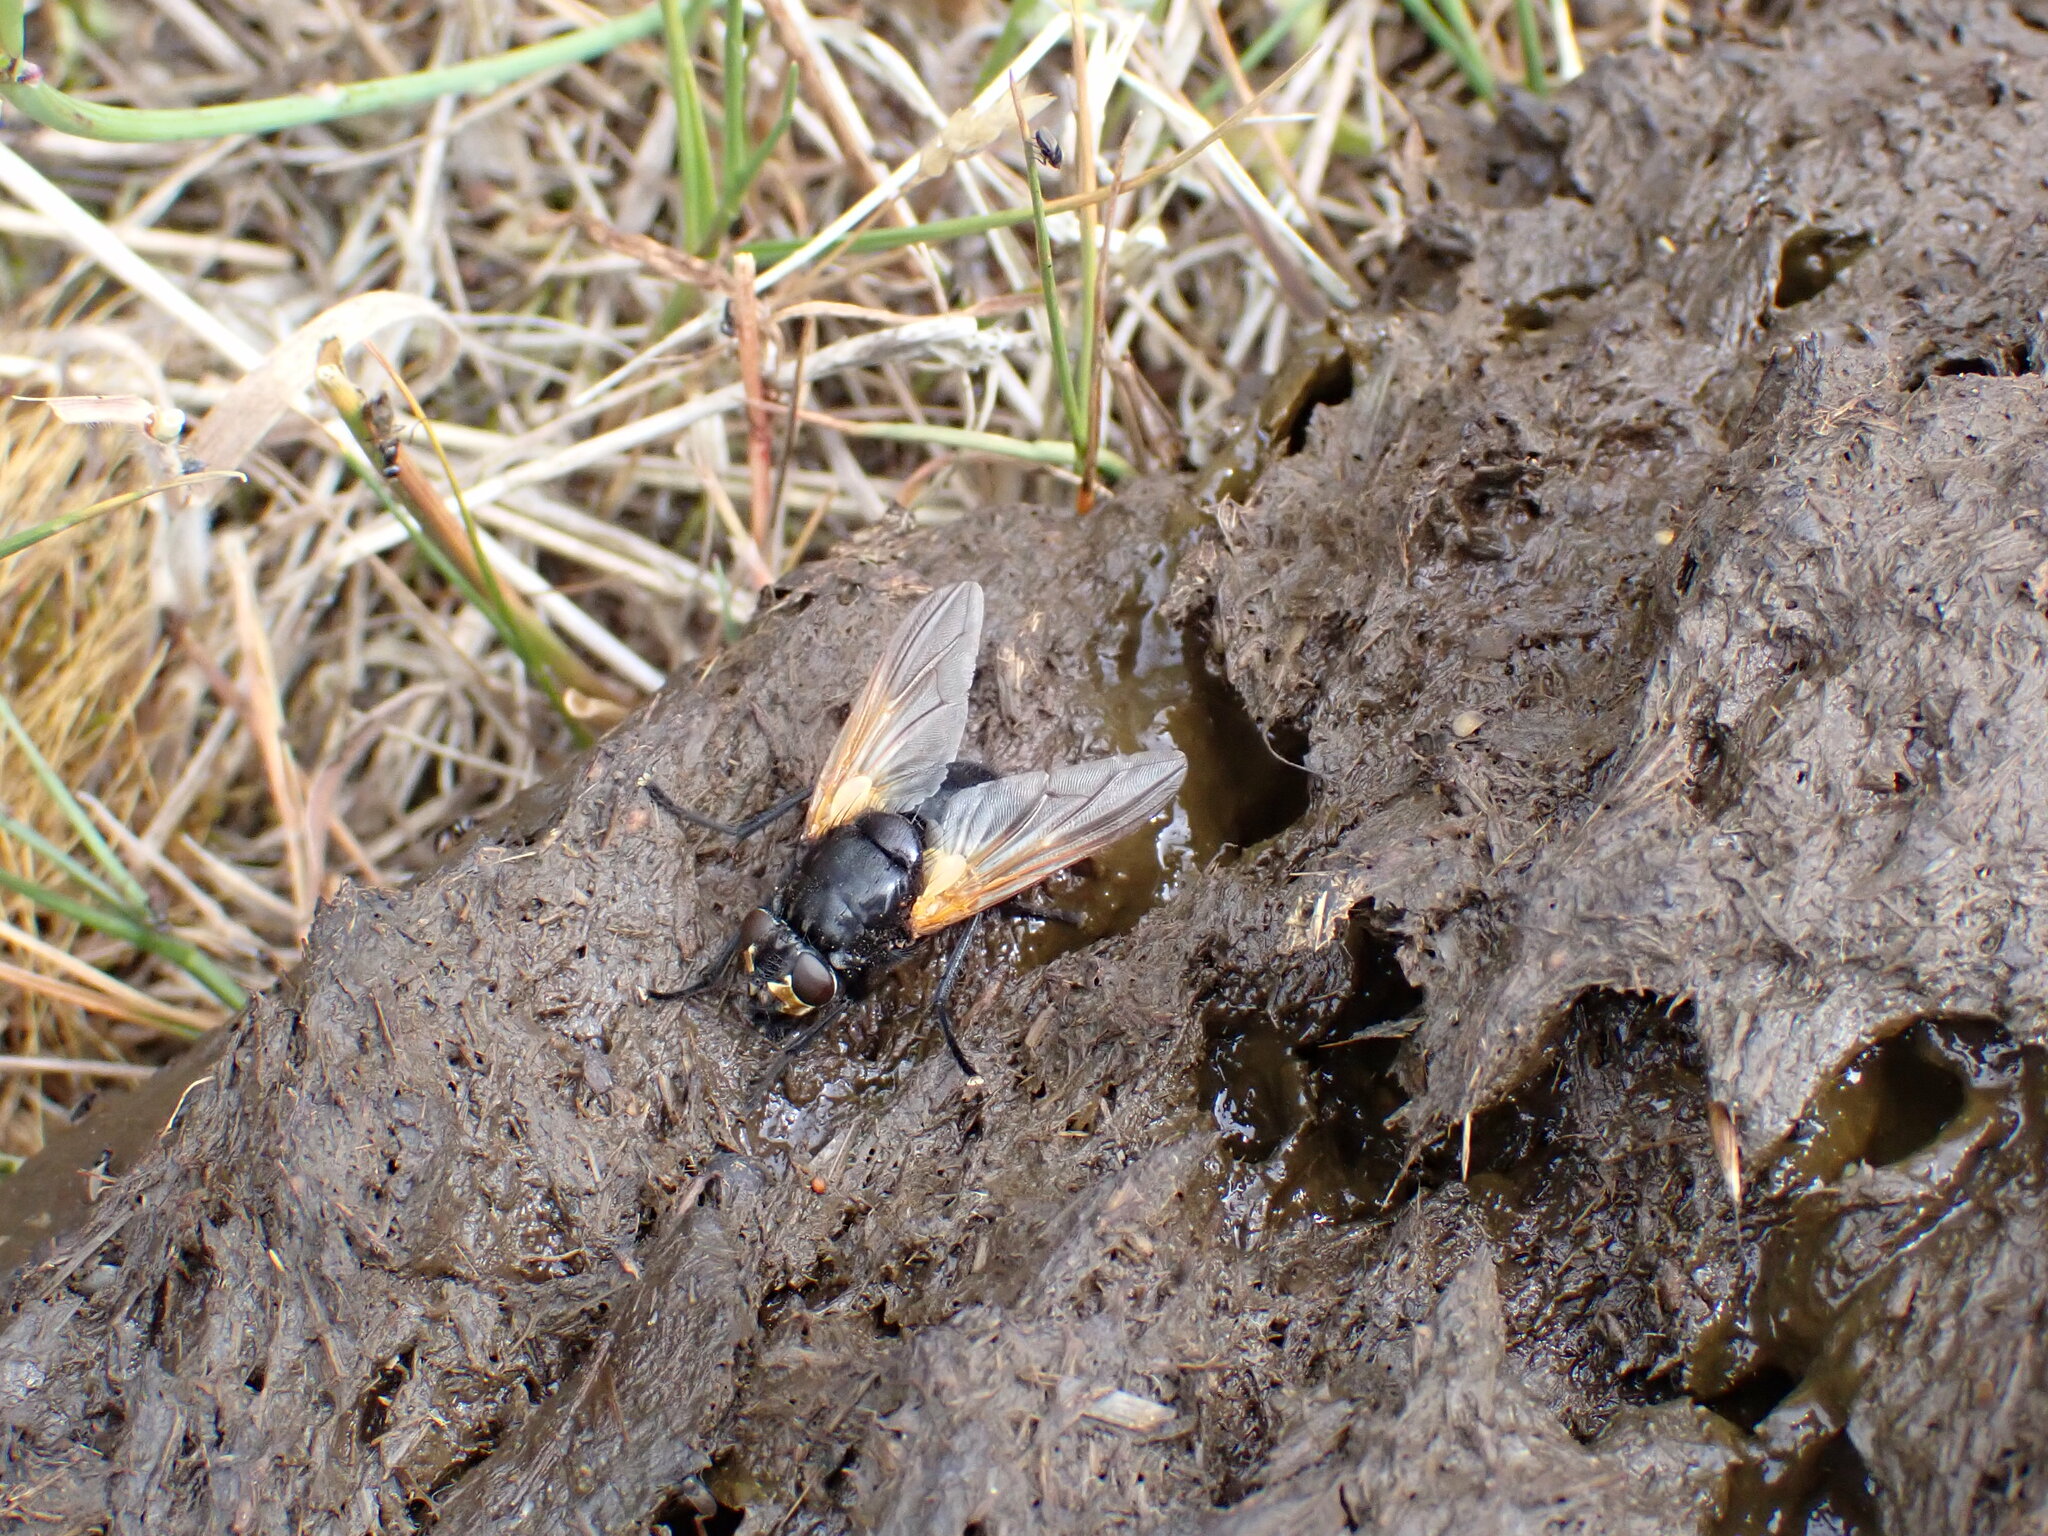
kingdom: Animalia
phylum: Arthropoda
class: Insecta
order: Diptera
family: Muscidae
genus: Mesembrina
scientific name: Mesembrina meridiana
